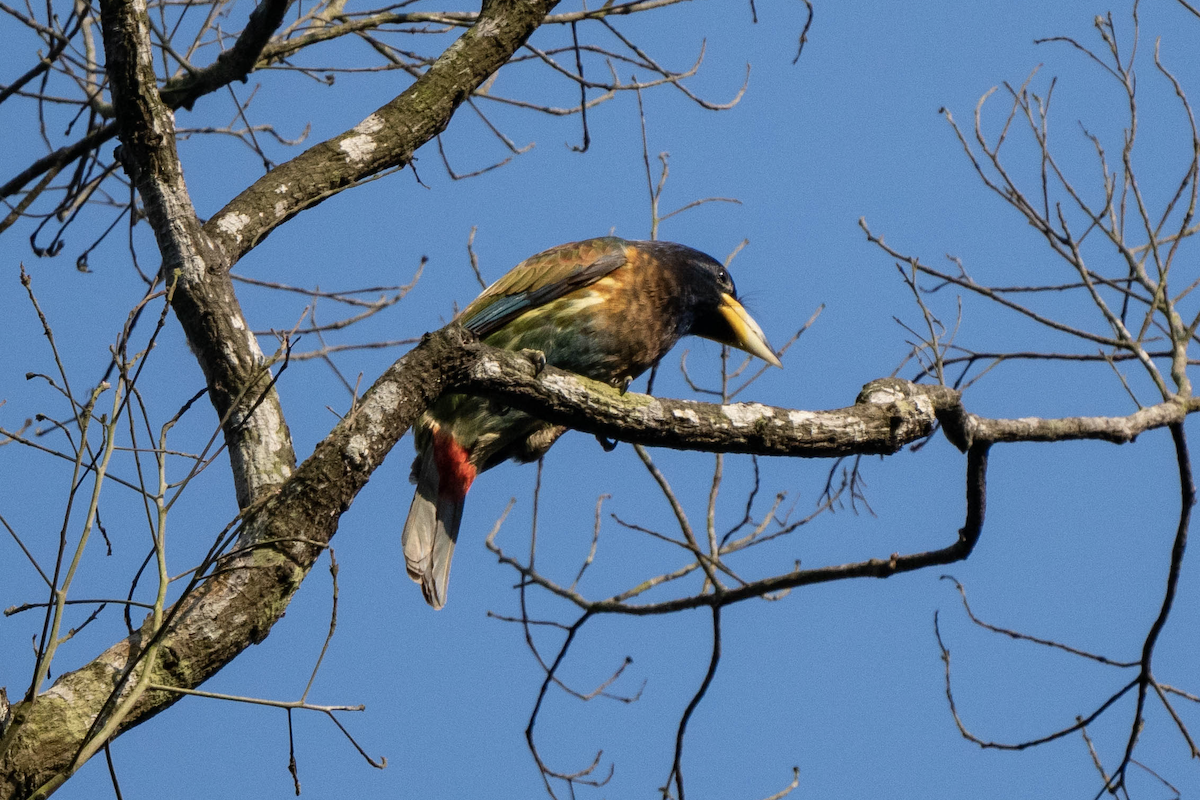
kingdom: Animalia
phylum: Chordata
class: Aves
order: Piciformes
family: Megalaimidae
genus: Psilopogon
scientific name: Psilopogon virens
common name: Great barbet
